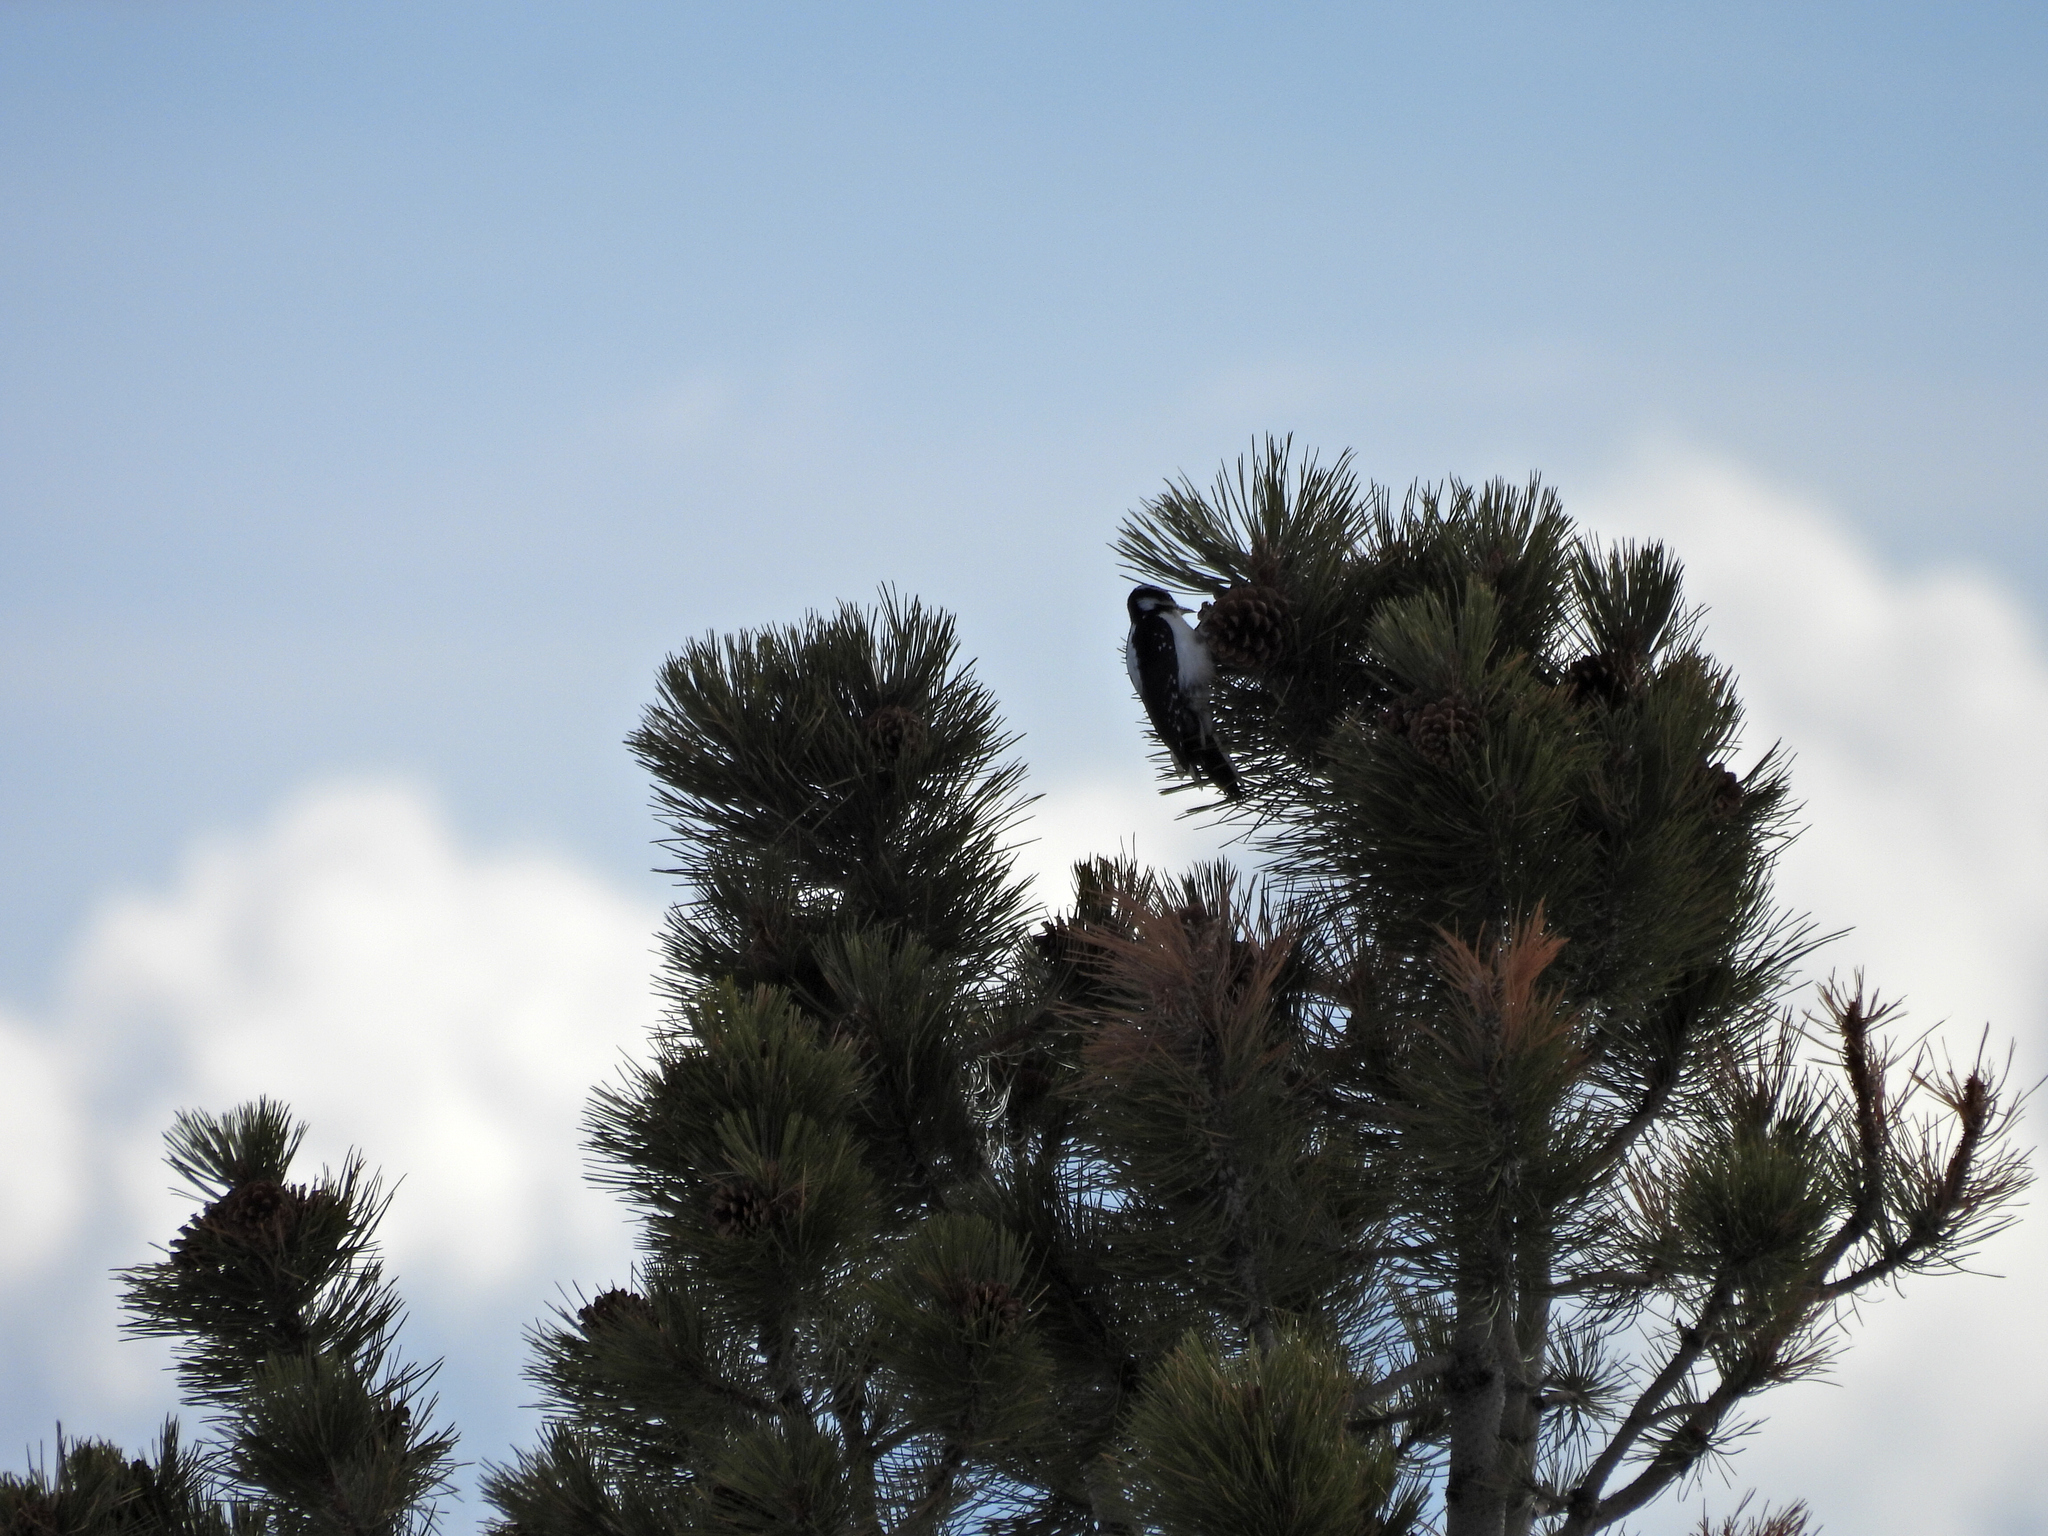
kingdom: Animalia
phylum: Chordata
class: Aves
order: Piciformes
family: Picidae
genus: Leuconotopicus
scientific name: Leuconotopicus villosus
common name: Hairy woodpecker
